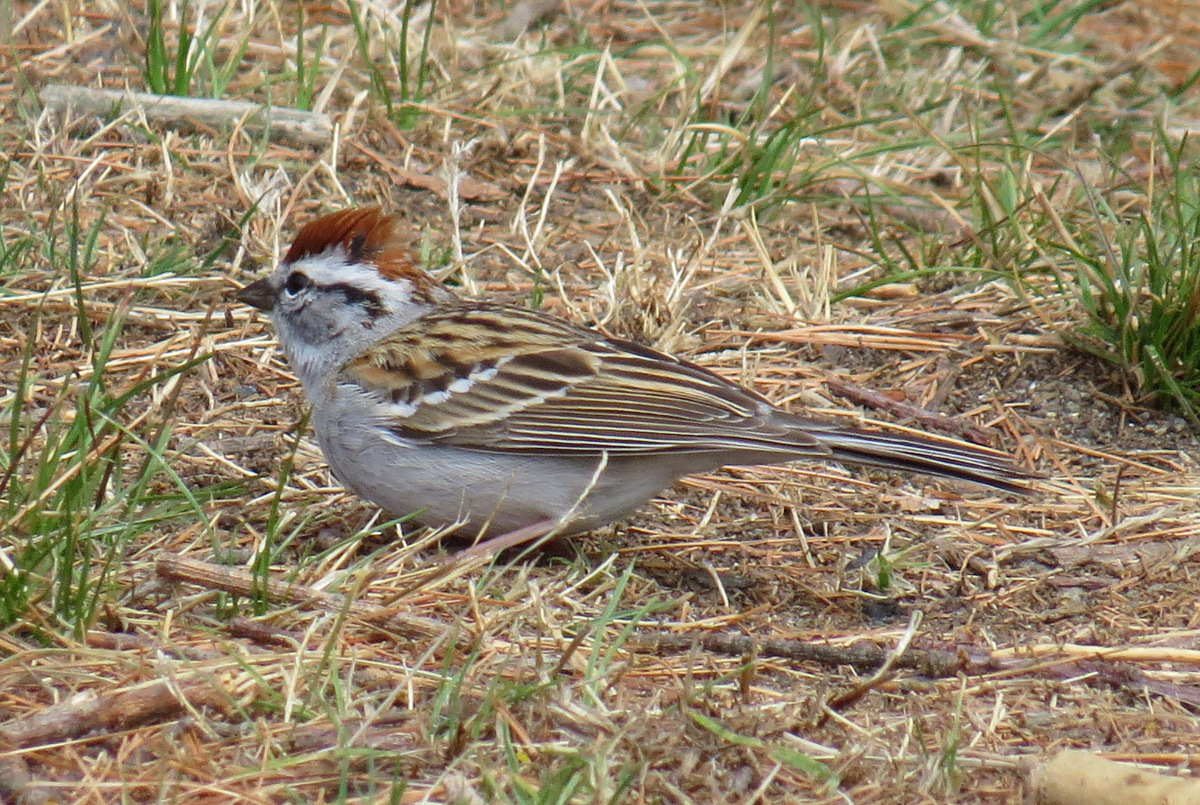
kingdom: Animalia
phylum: Chordata
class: Aves
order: Passeriformes
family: Passerellidae
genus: Spizella
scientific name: Spizella passerina
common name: Chipping sparrow
